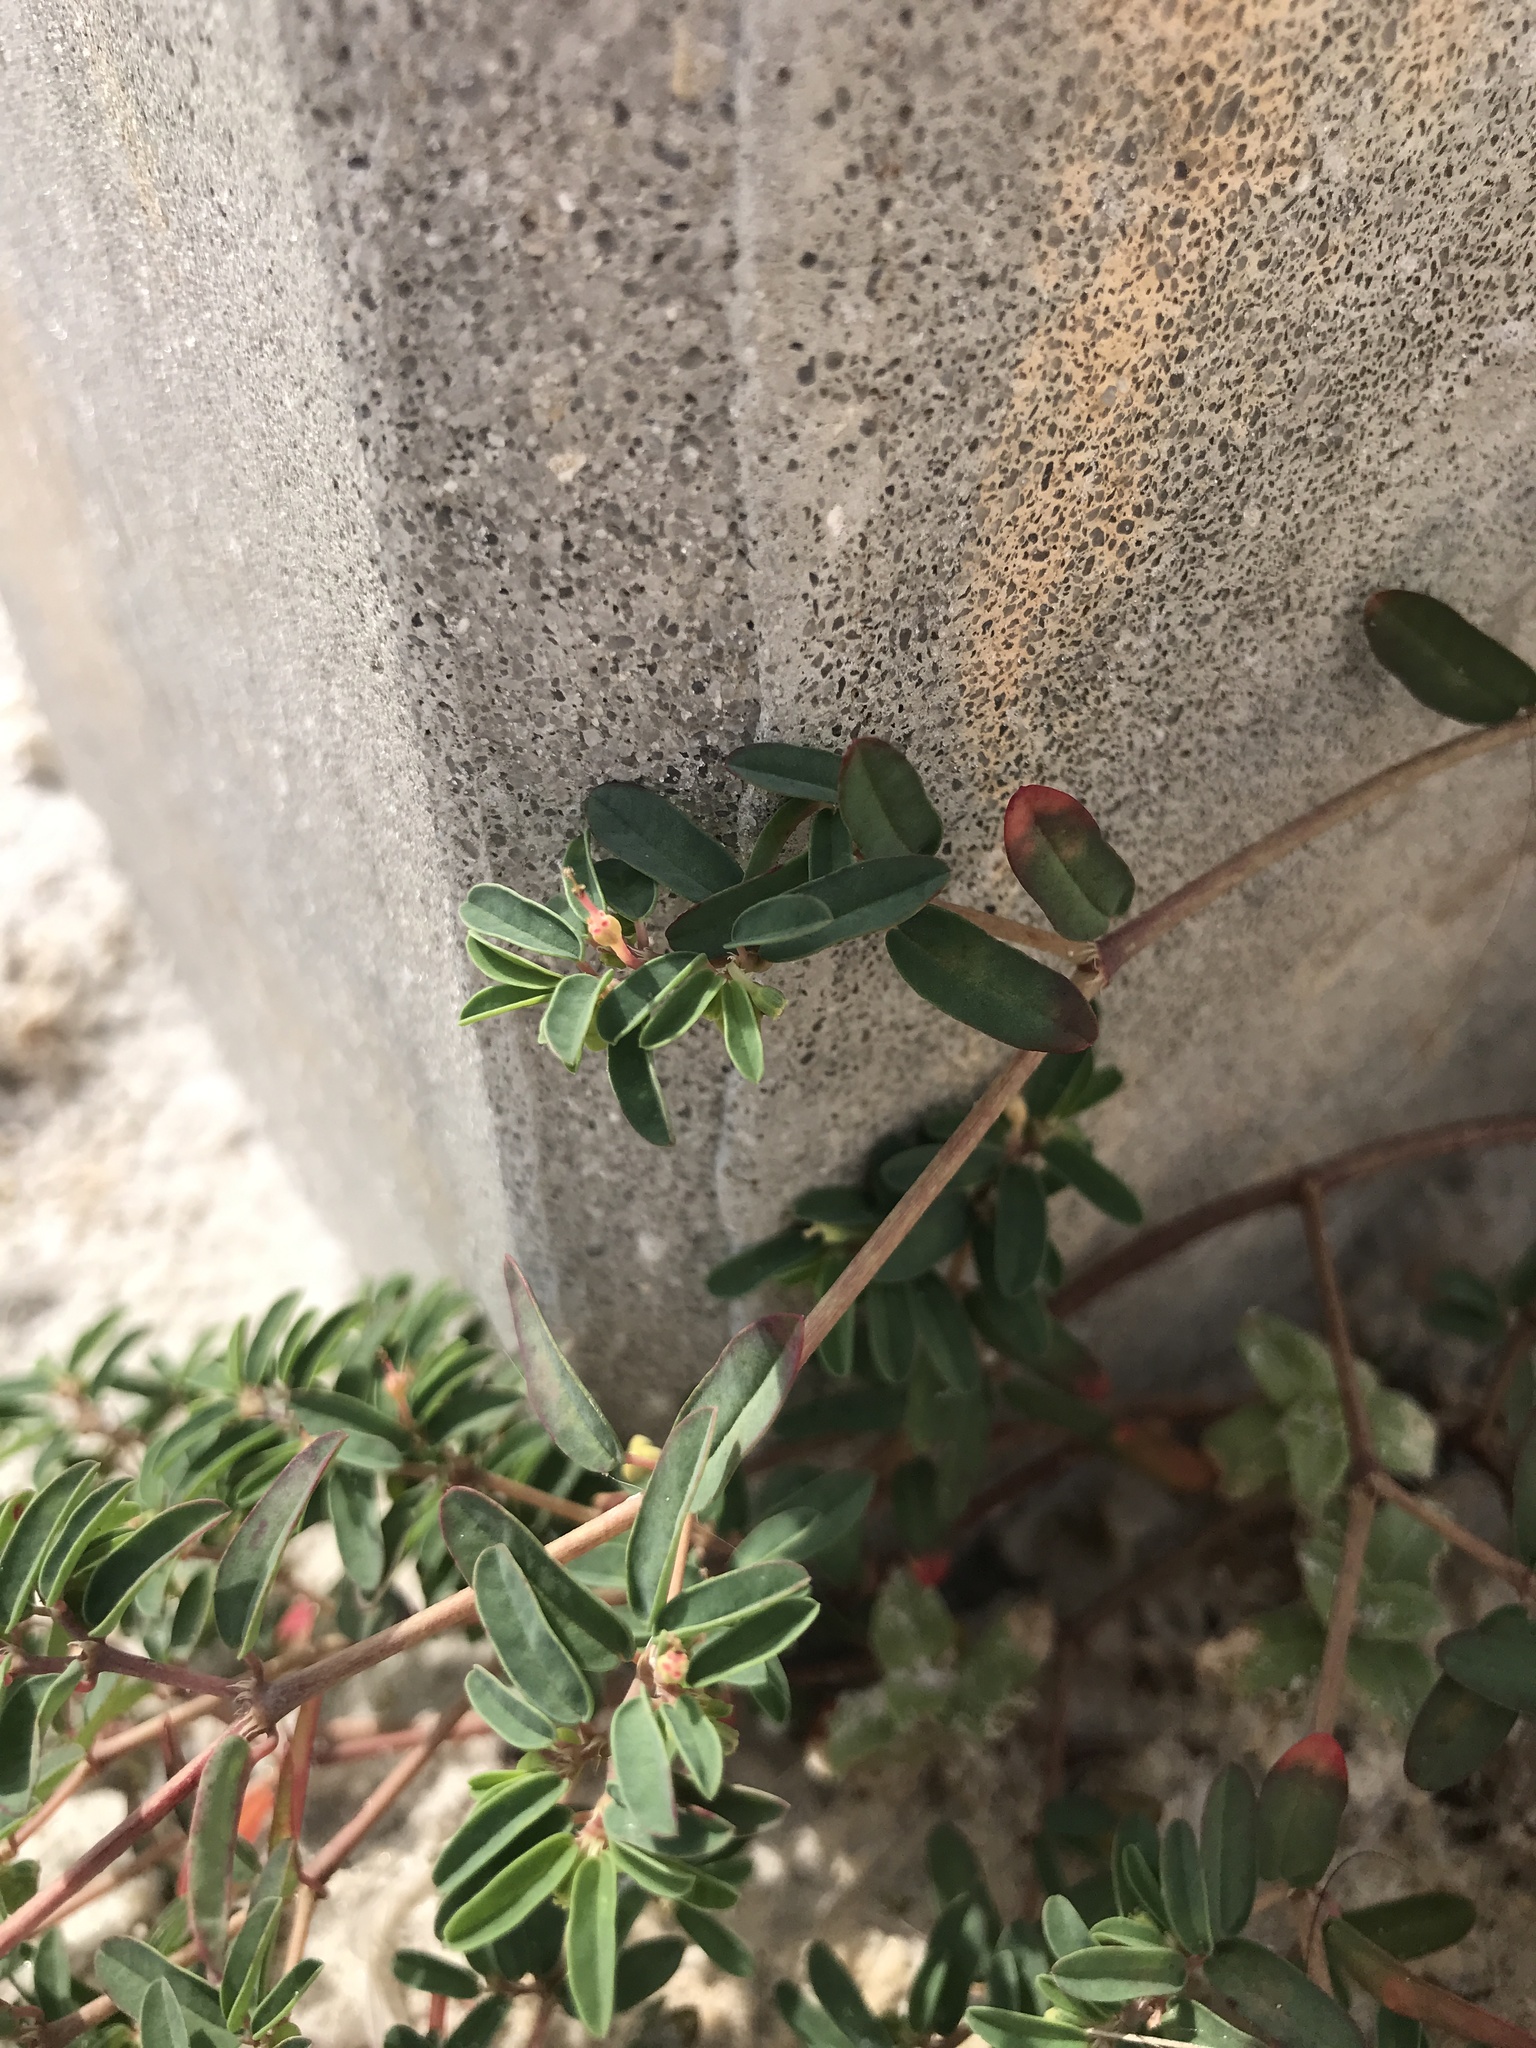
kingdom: Plantae
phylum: Tracheophyta
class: Magnoliopsida
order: Malpighiales
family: Euphorbiaceae
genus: Euphorbia
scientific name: Euphorbia bombensis
